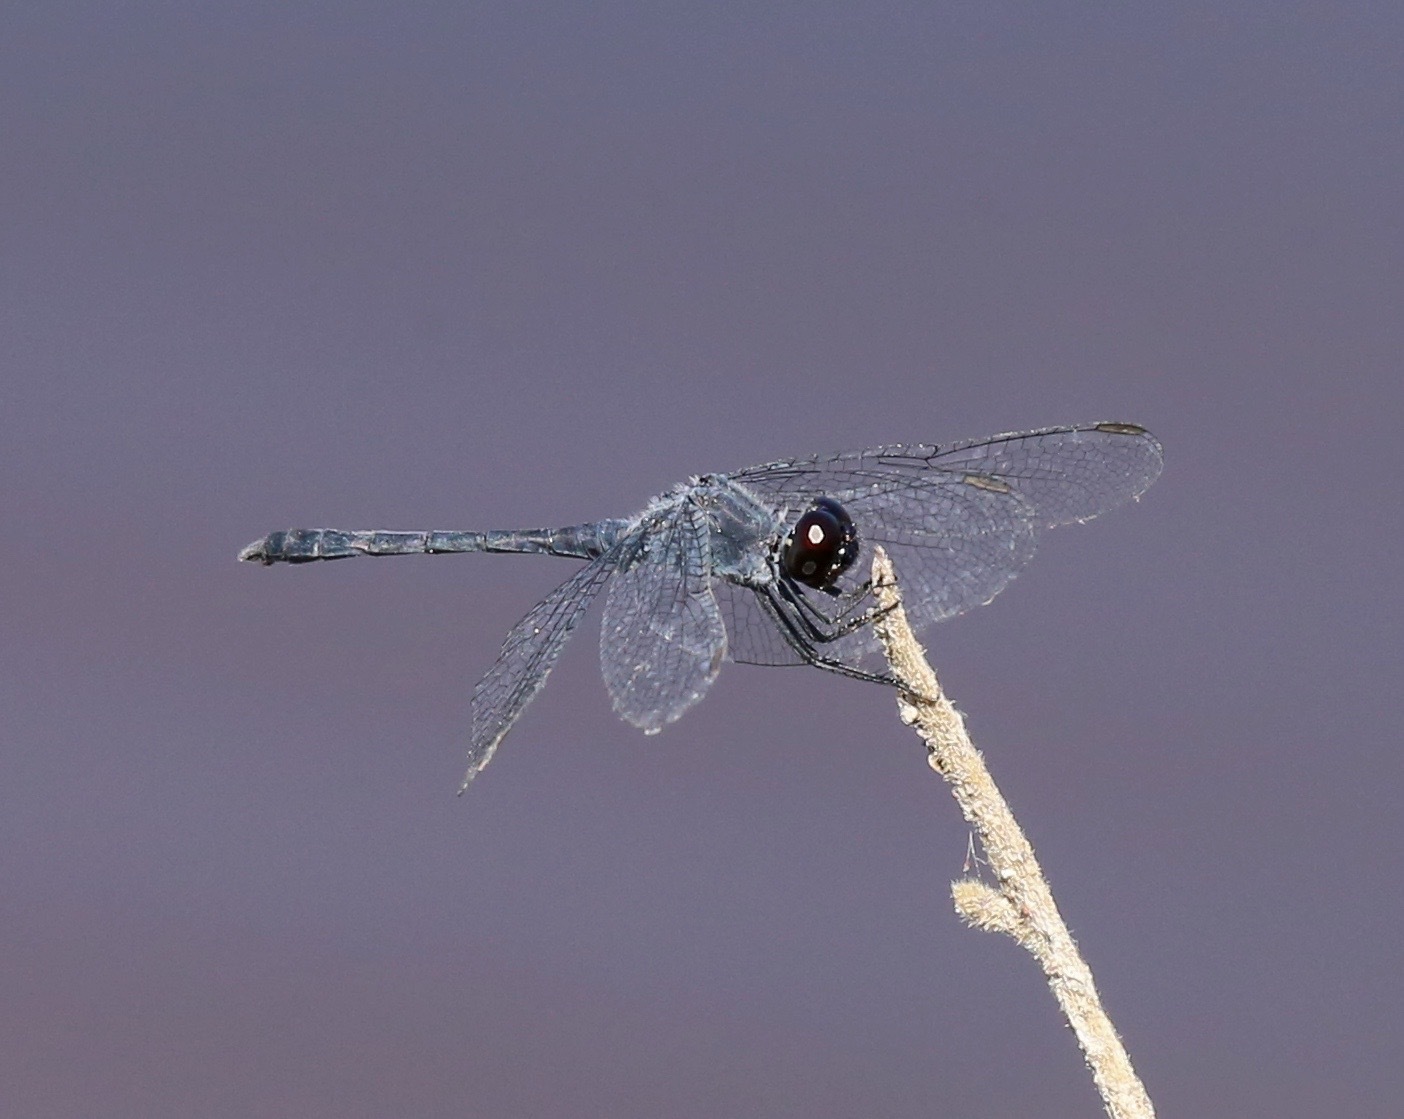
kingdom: Animalia
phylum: Arthropoda
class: Insecta
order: Odonata
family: Libellulidae
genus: Erythrodiplax
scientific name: Erythrodiplax berenice
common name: Seaside dragonlet
